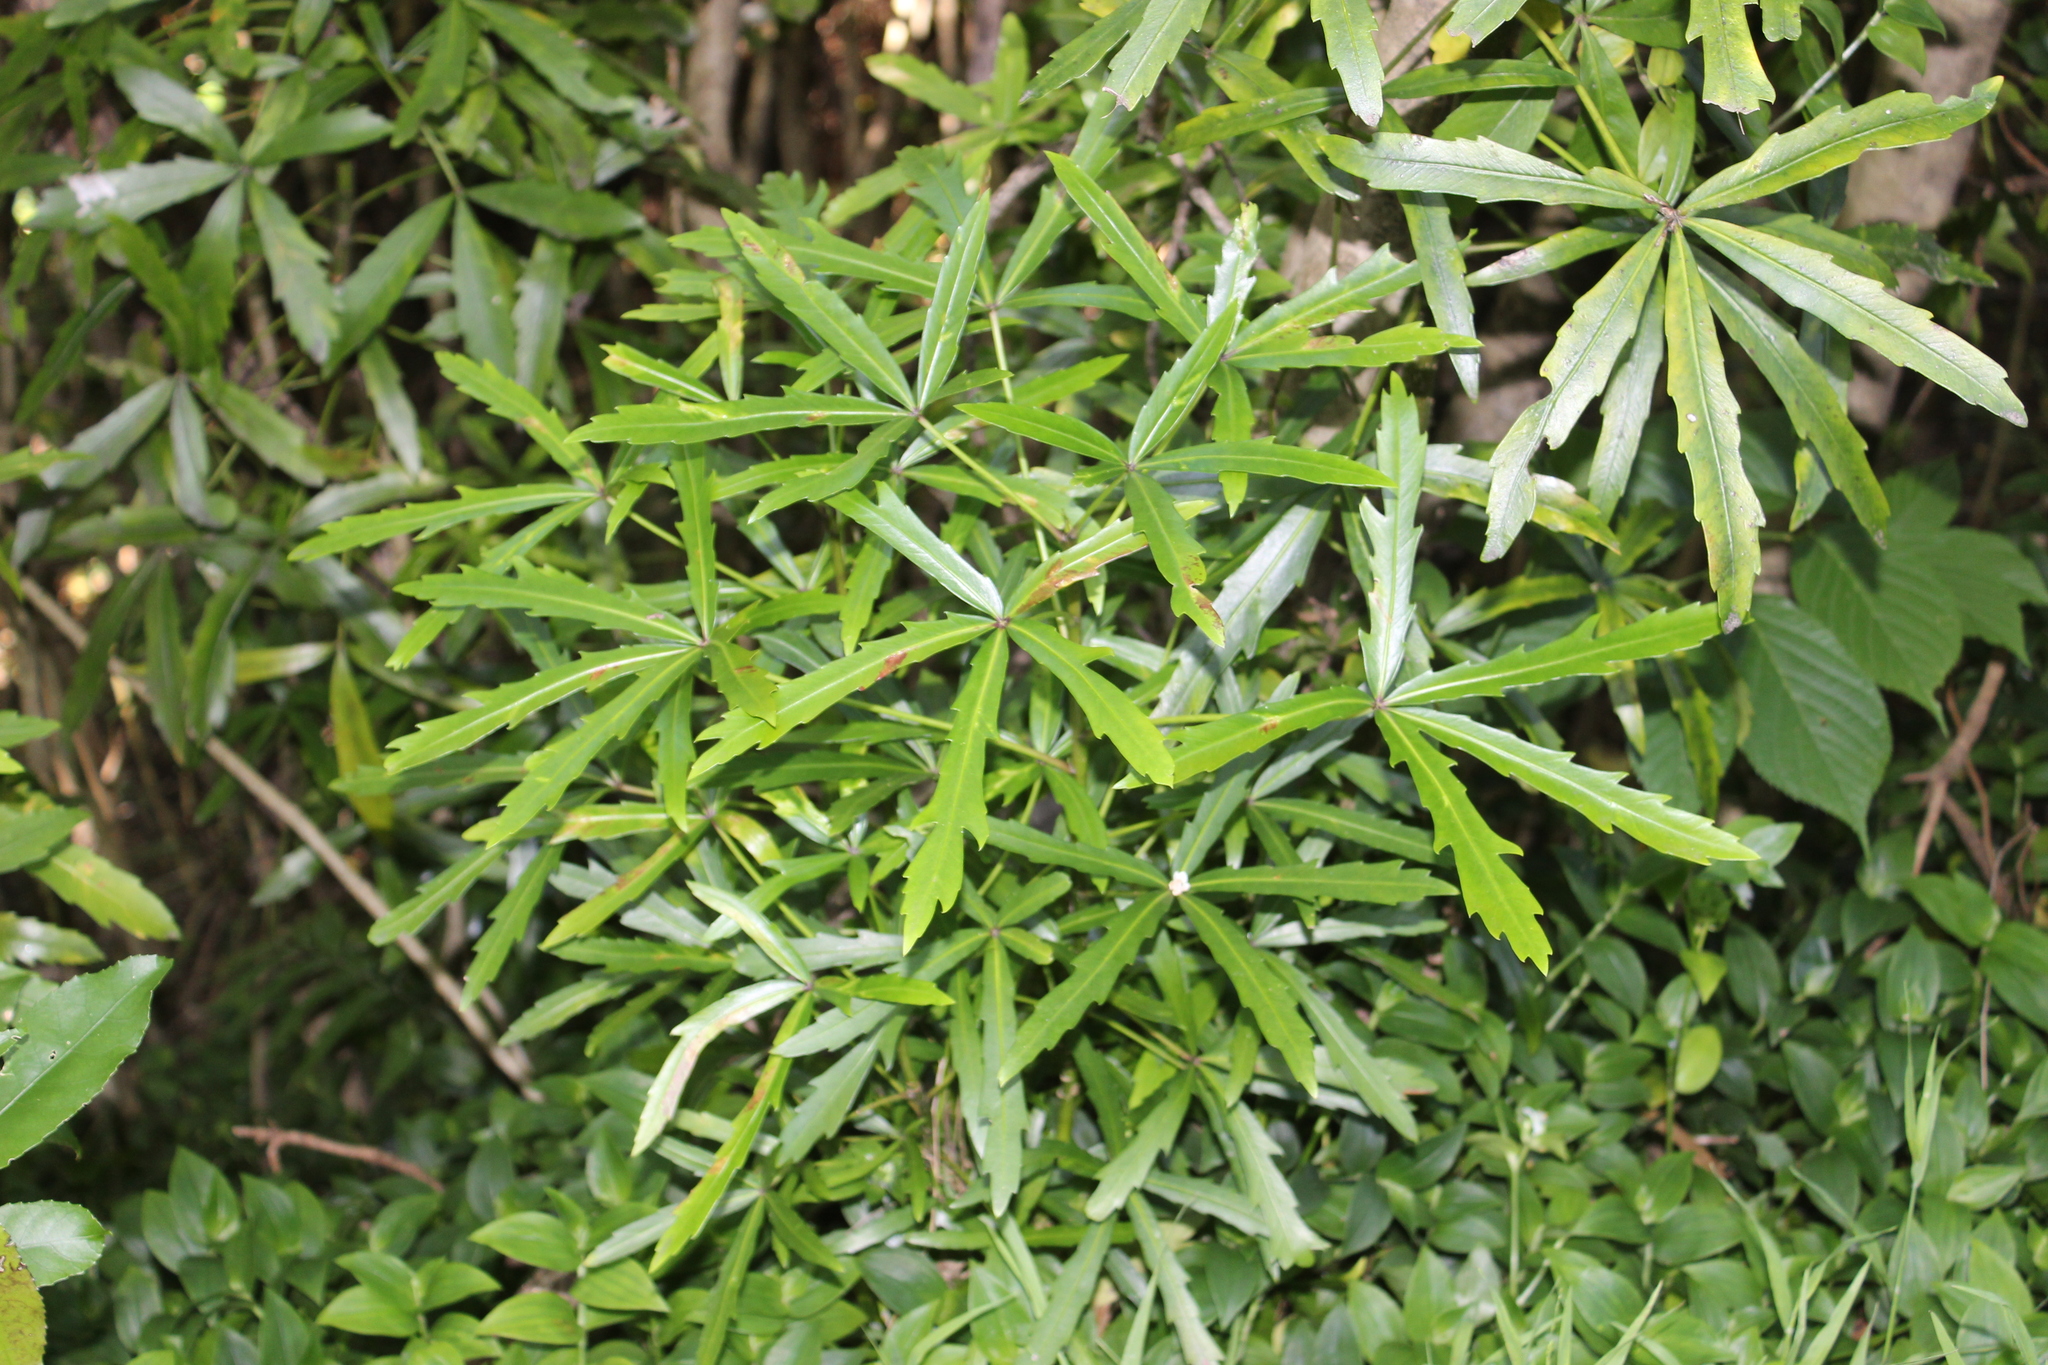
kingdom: Plantae
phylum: Tracheophyta
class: Magnoliopsida
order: Apiales
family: Araliaceae
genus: Pseudopanax
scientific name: Pseudopanax
